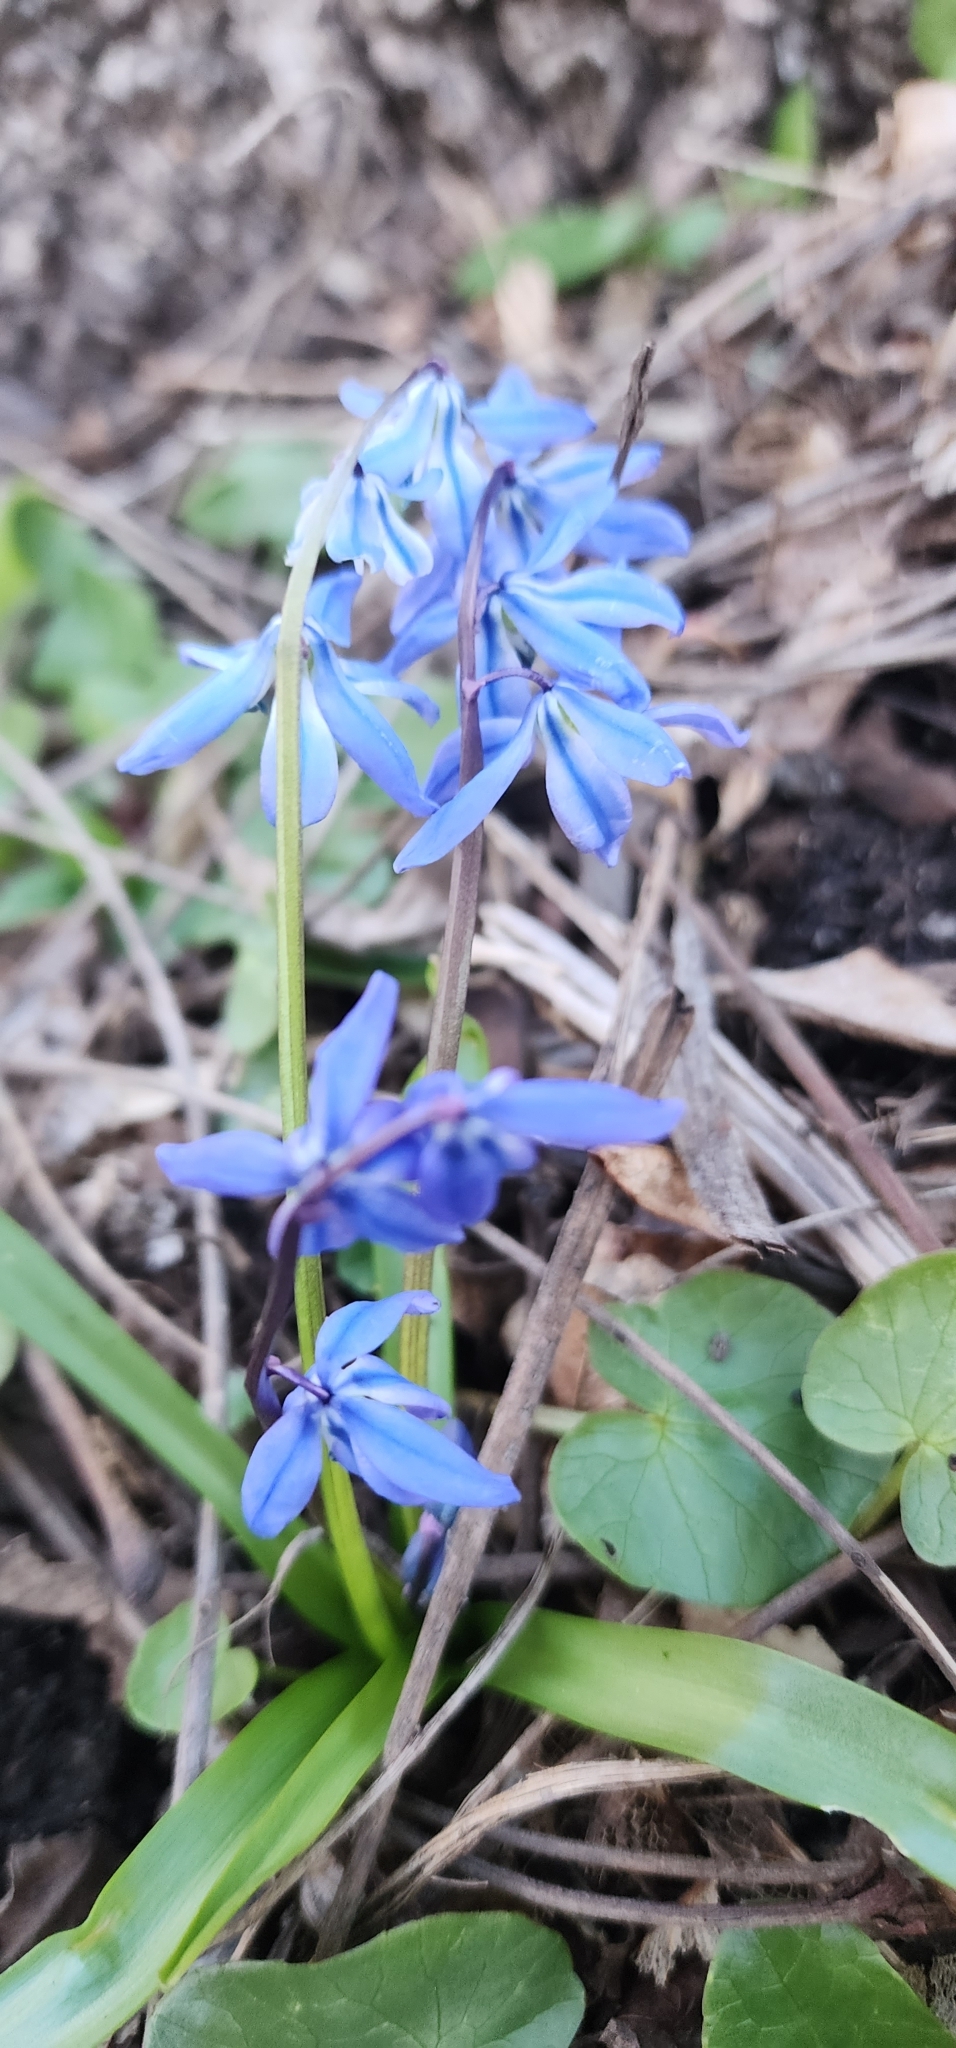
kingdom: Plantae
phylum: Tracheophyta
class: Liliopsida
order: Asparagales
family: Asparagaceae
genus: Scilla
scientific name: Scilla siberica
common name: Siberian squill
